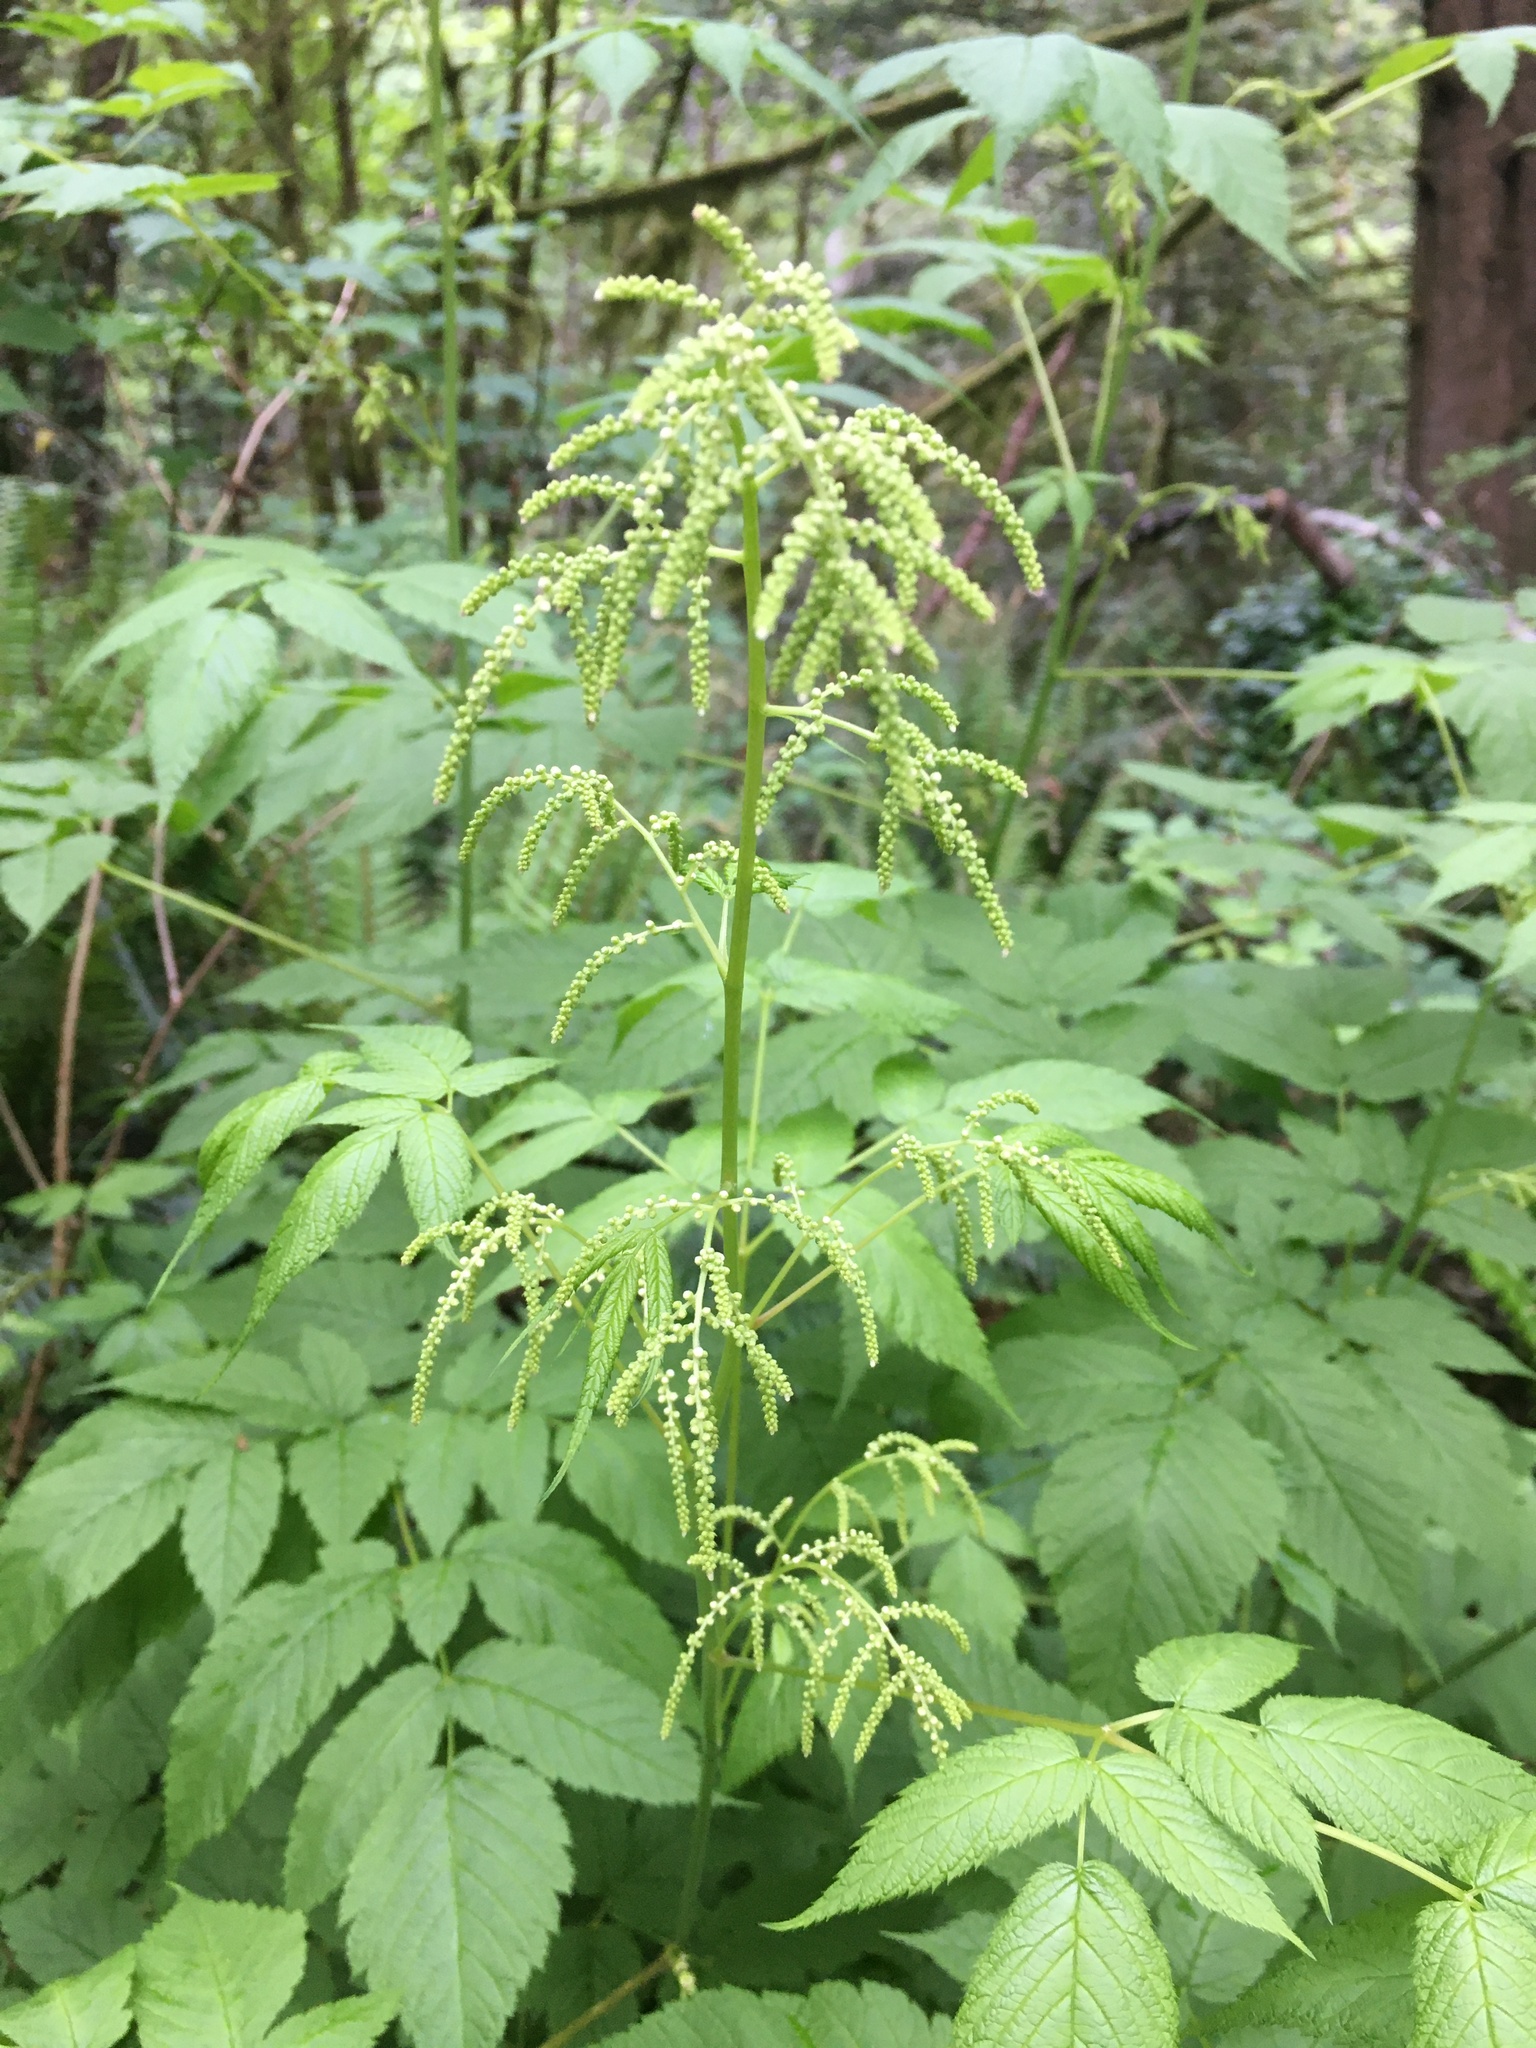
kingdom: Plantae
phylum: Tracheophyta
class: Magnoliopsida
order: Rosales
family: Rosaceae
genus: Aruncus
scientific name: Aruncus dioicus
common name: Buck's-beard
